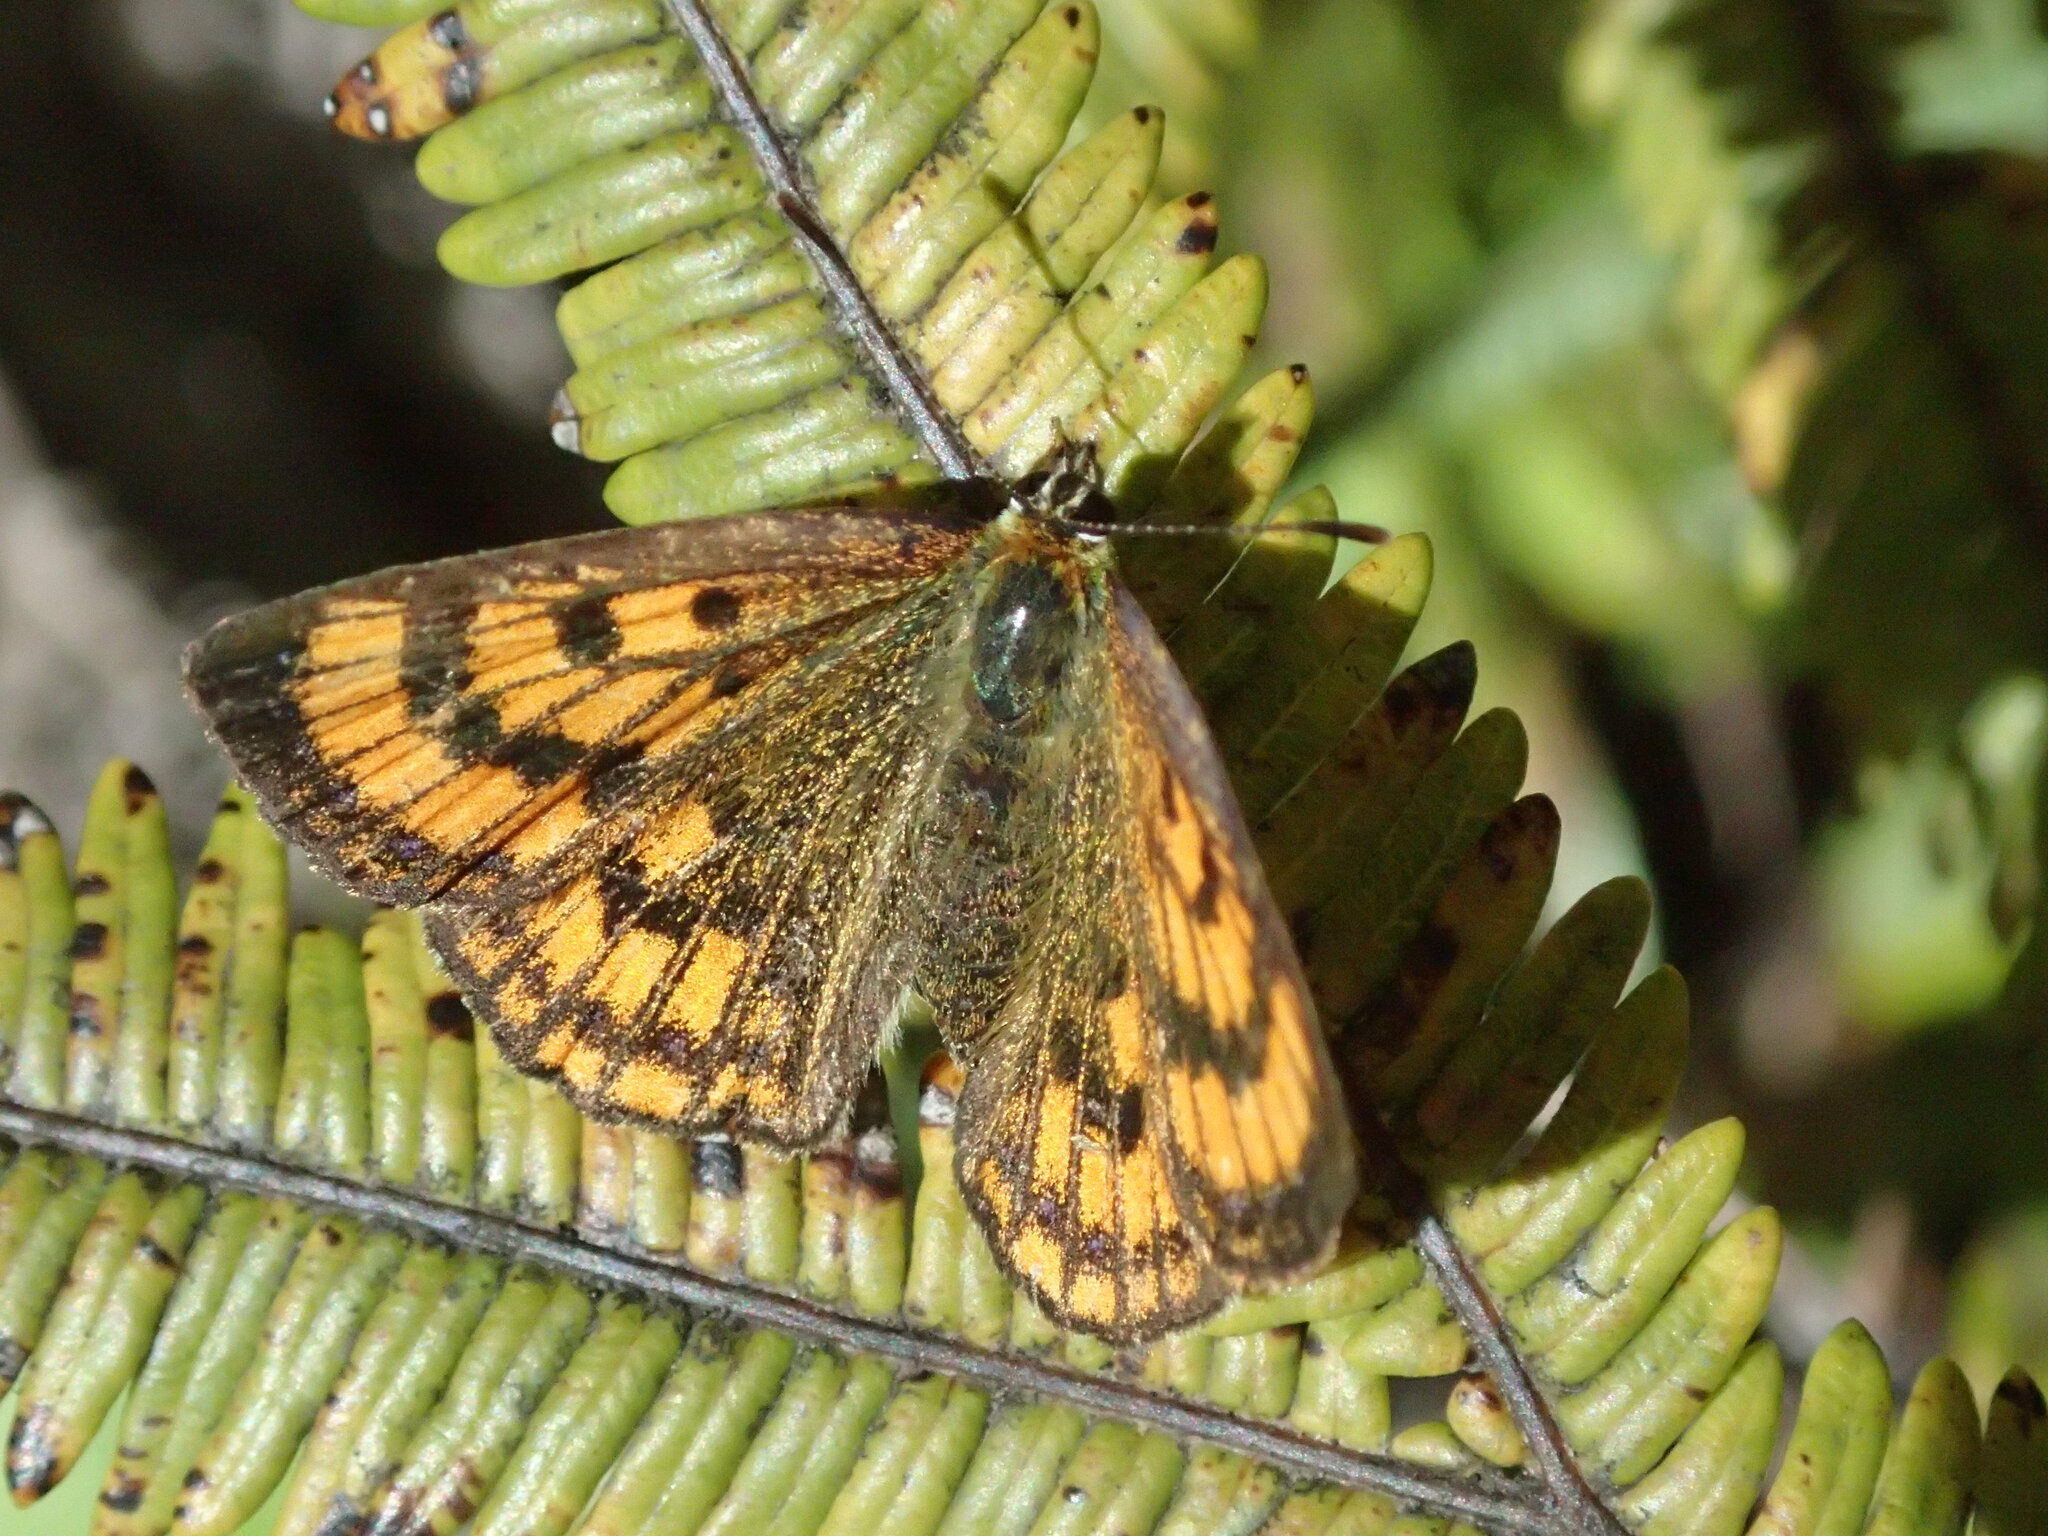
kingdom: Animalia
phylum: Arthropoda
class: Insecta
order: Lepidoptera
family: Lycaenidae
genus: Lycaena
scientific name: Lycaena salustius
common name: North island coastal copper
